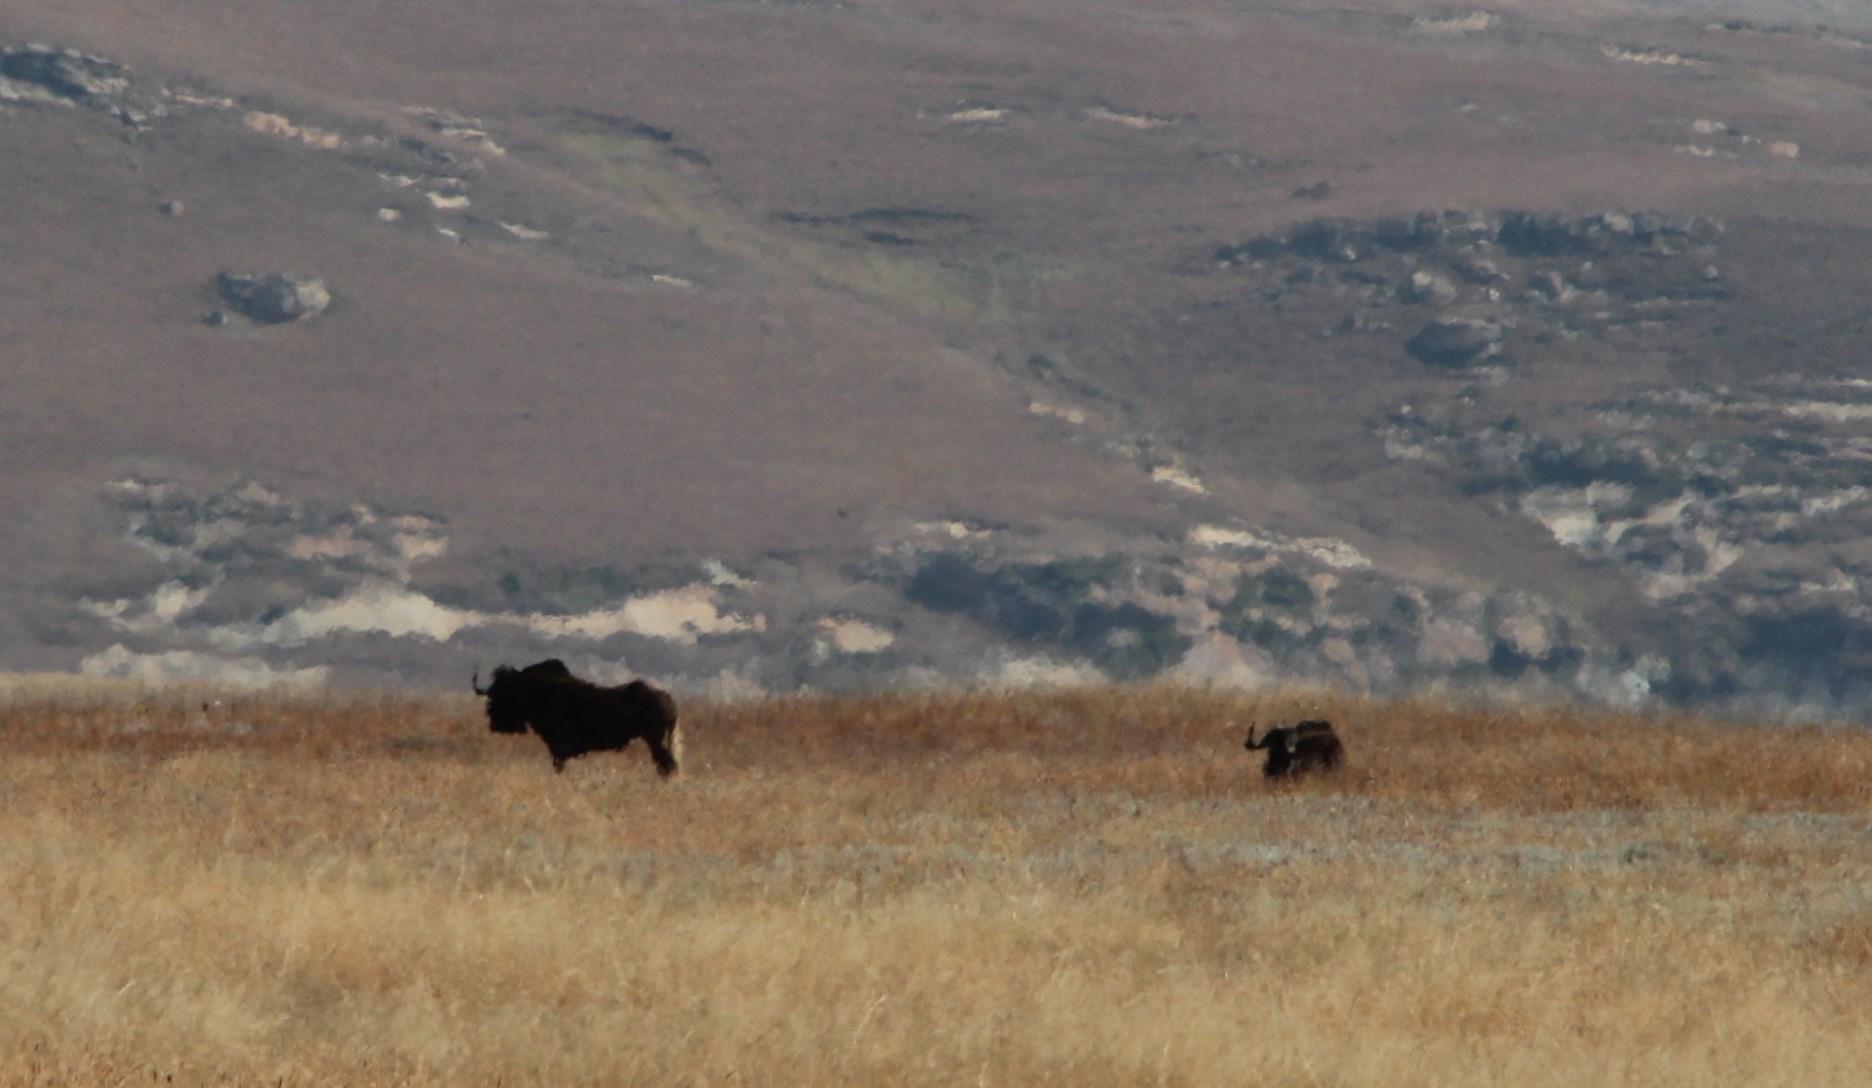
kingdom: Animalia
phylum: Chordata
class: Mammalia
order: Artiodactyla
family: Bovidae
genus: Connochaetes
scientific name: Connochaetes gnou
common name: Black wildebeest
